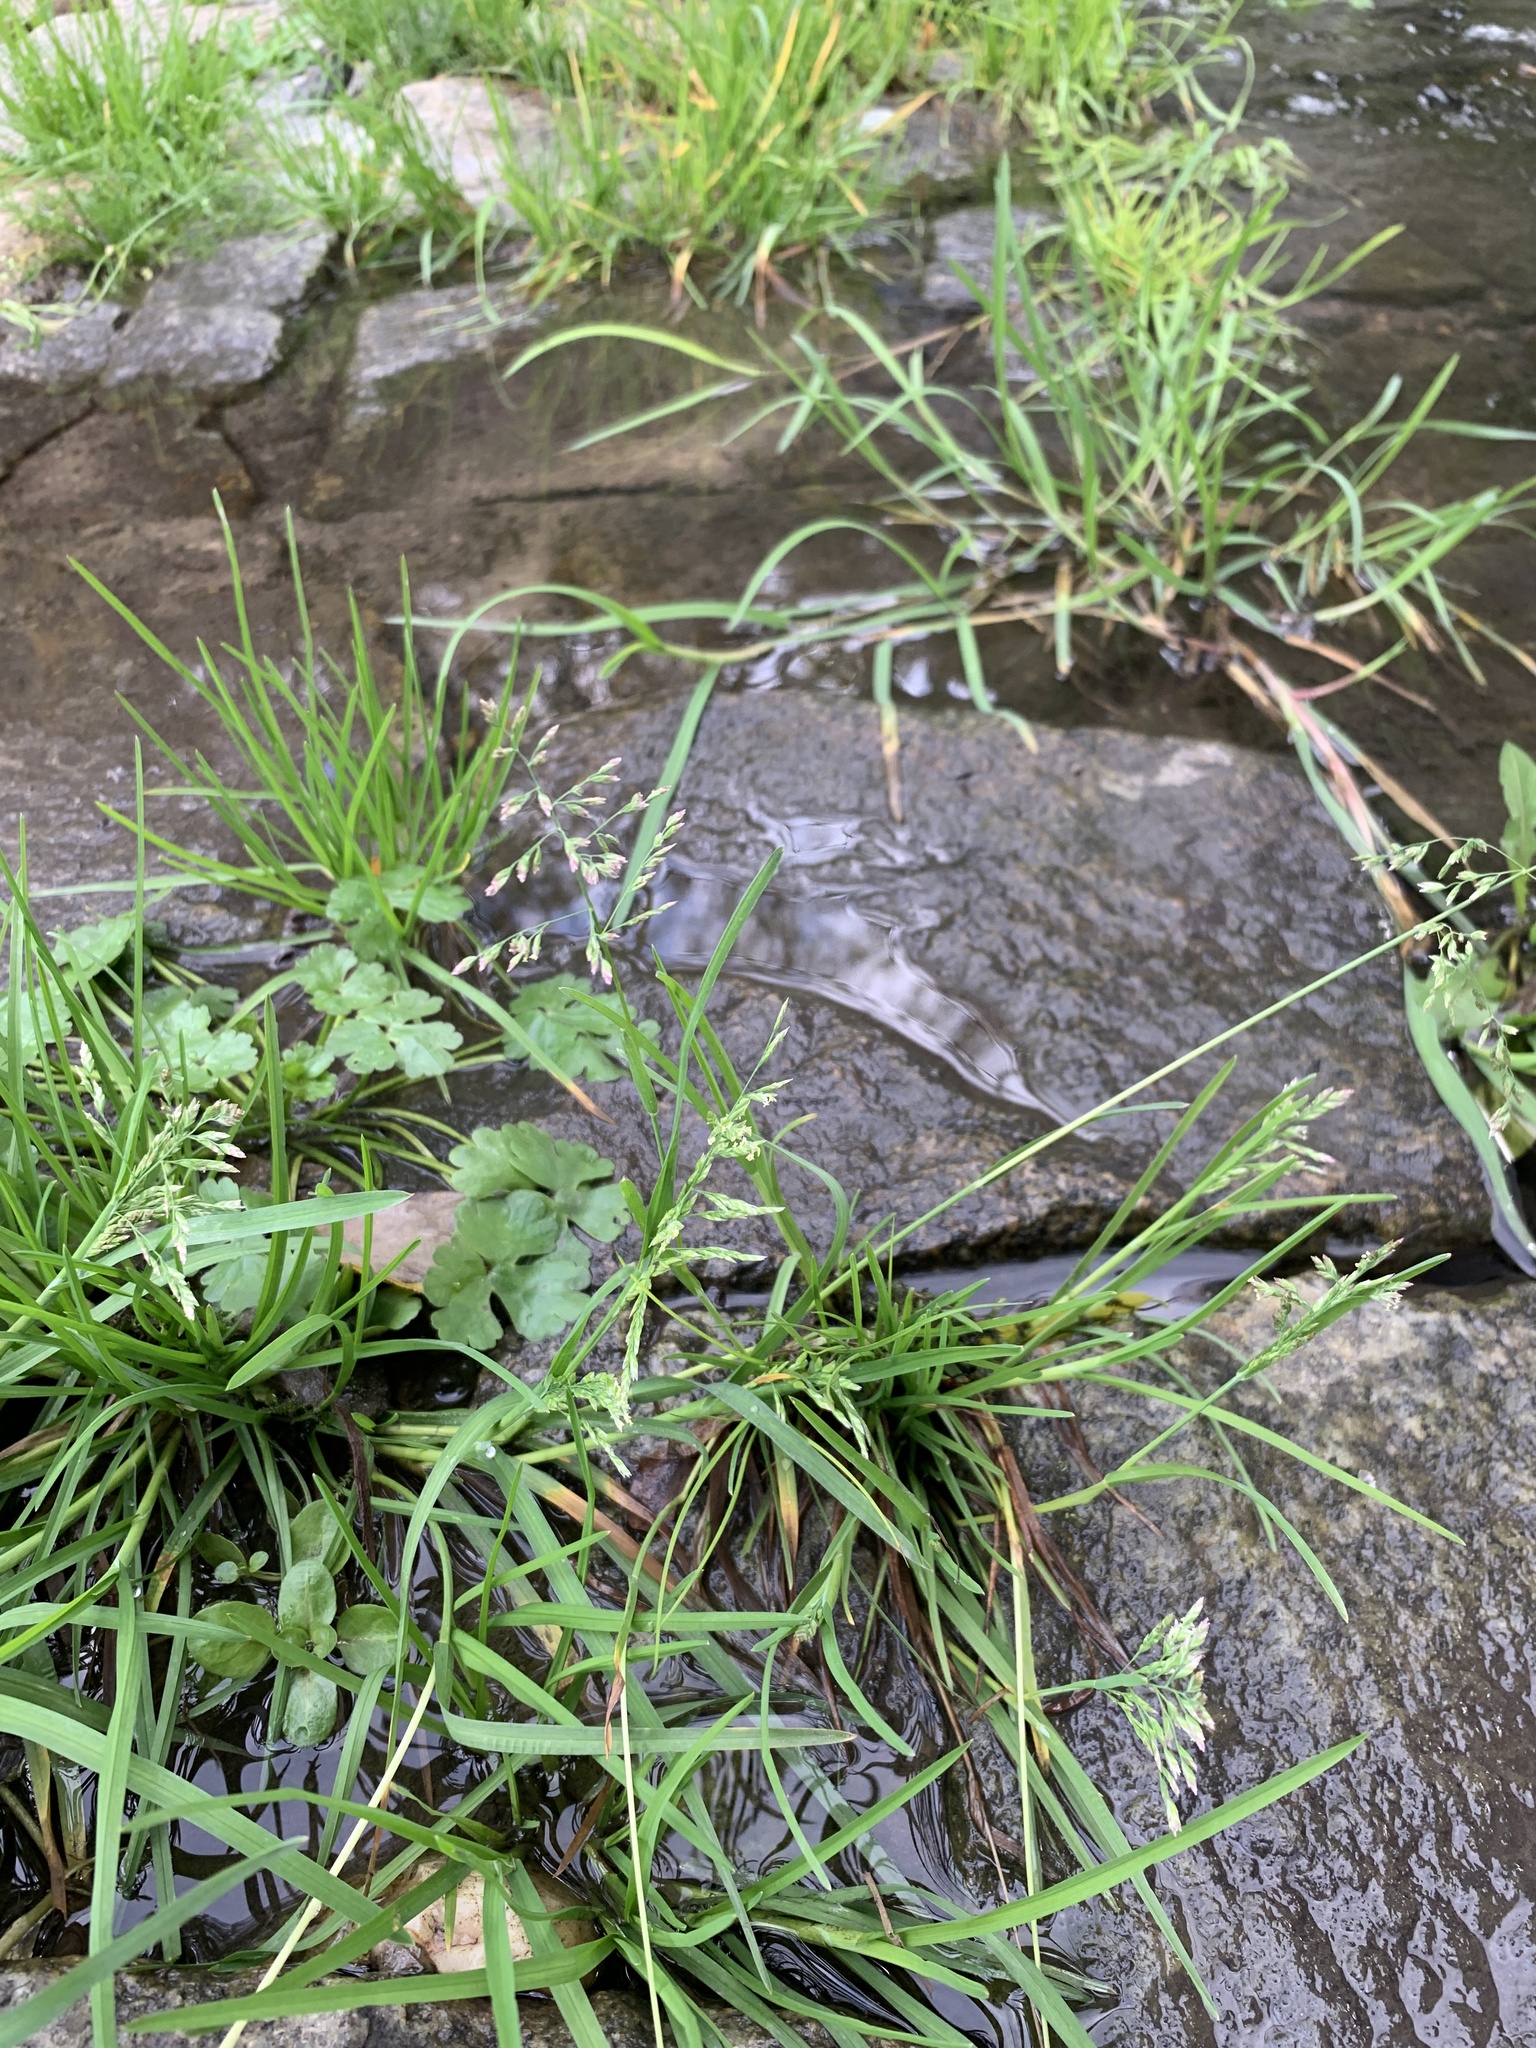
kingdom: Plantae
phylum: Tracheophyta
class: Liliopsida
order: Poales
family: Poaceae
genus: Poa
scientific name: Poa annua
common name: Annual bluegrass
